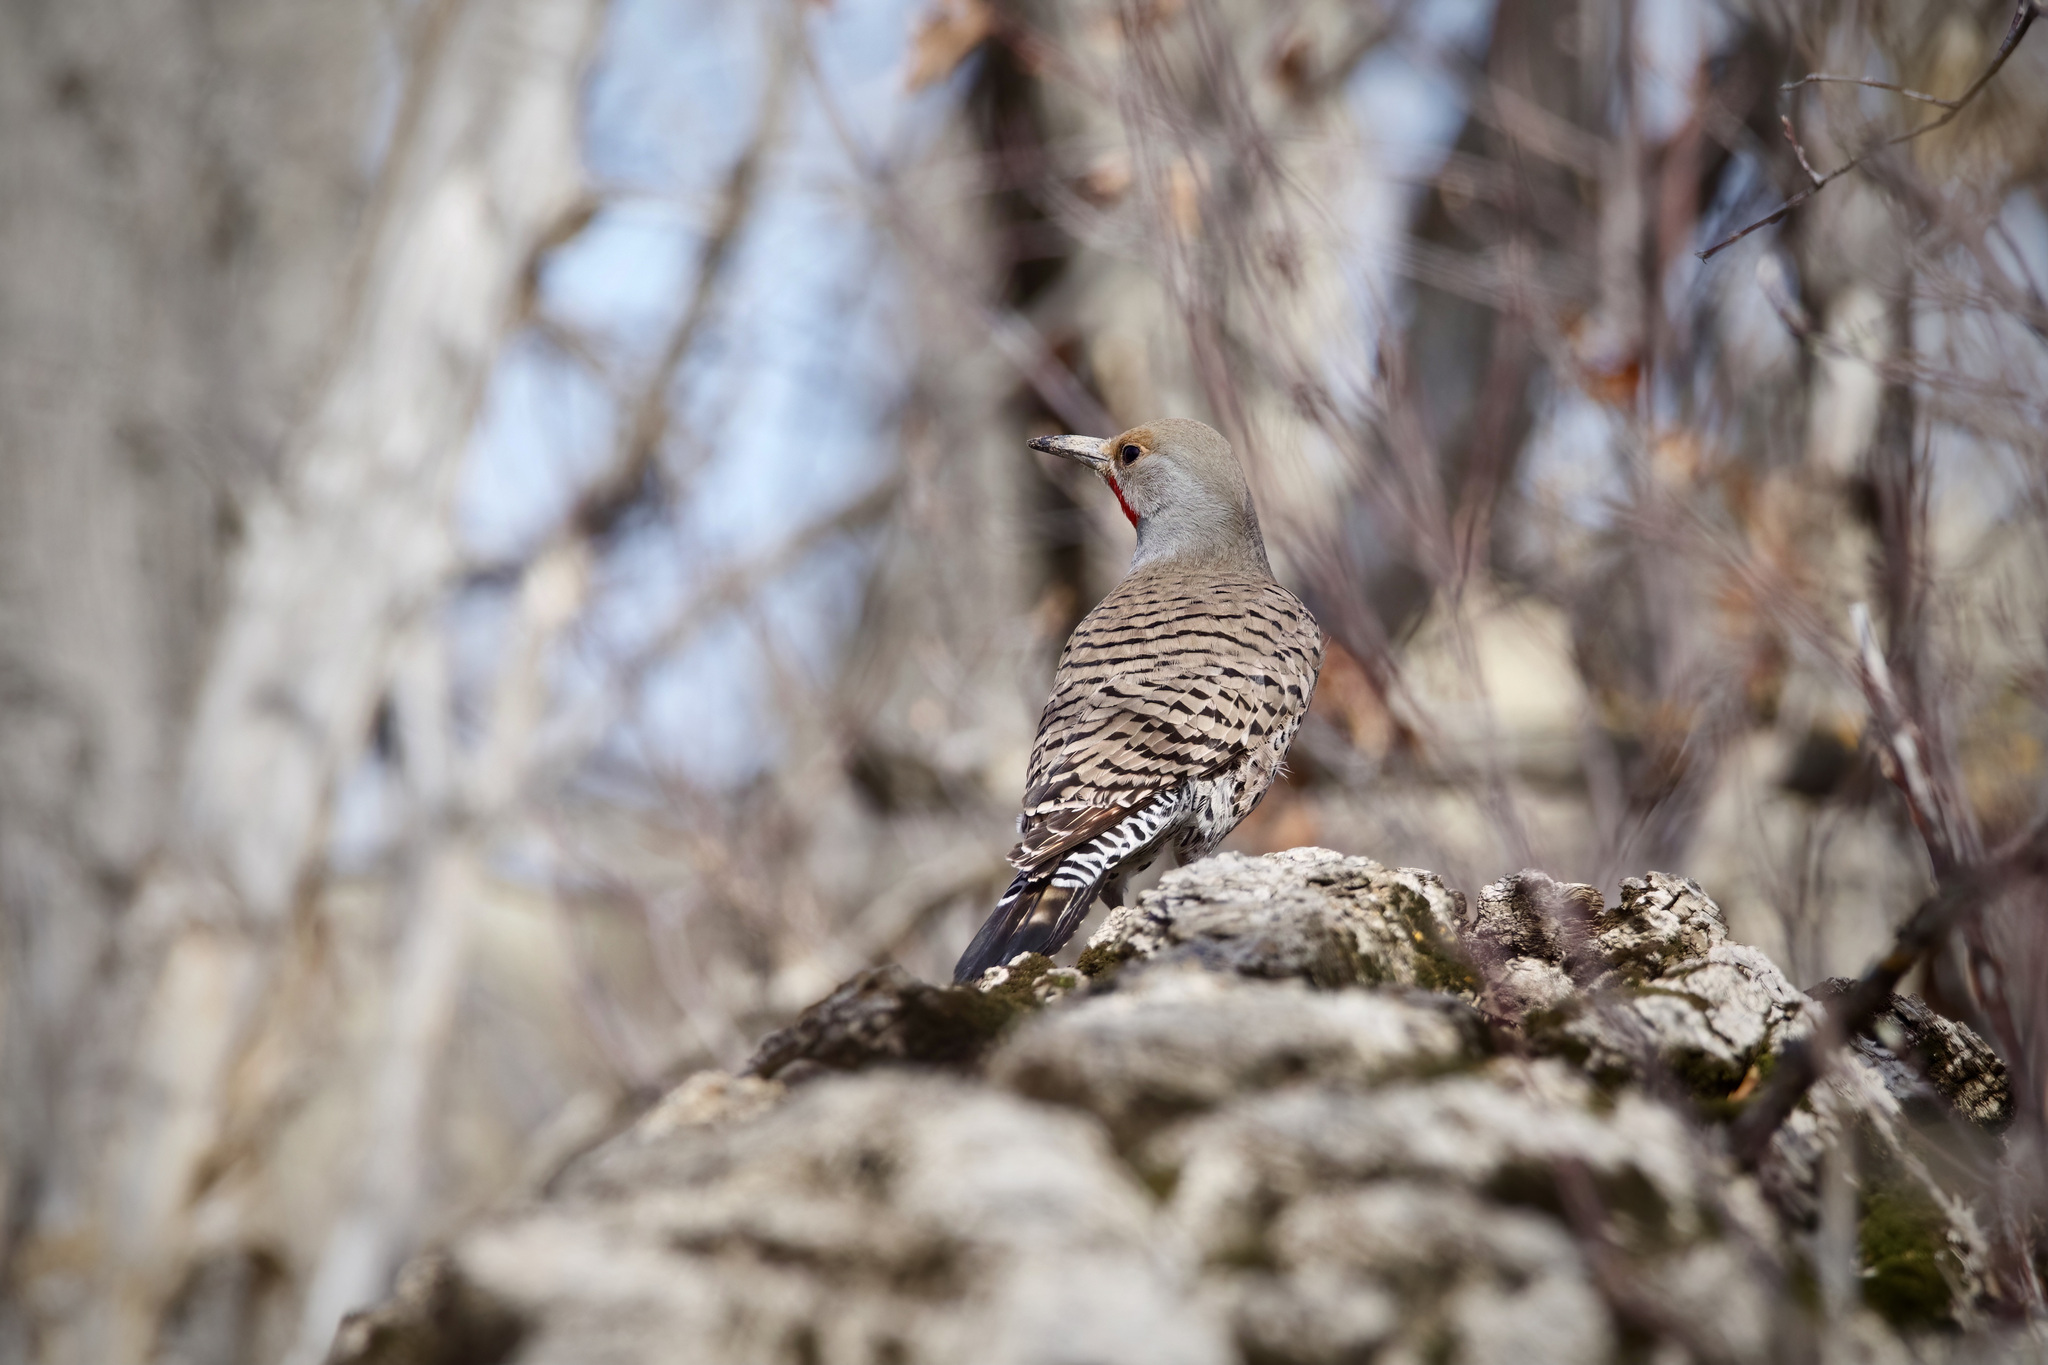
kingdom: Animalia
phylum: Chordata
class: Aves
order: Piciformes
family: Picidae
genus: Colaptes
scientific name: Colaptes auratus
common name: Northern flicker
